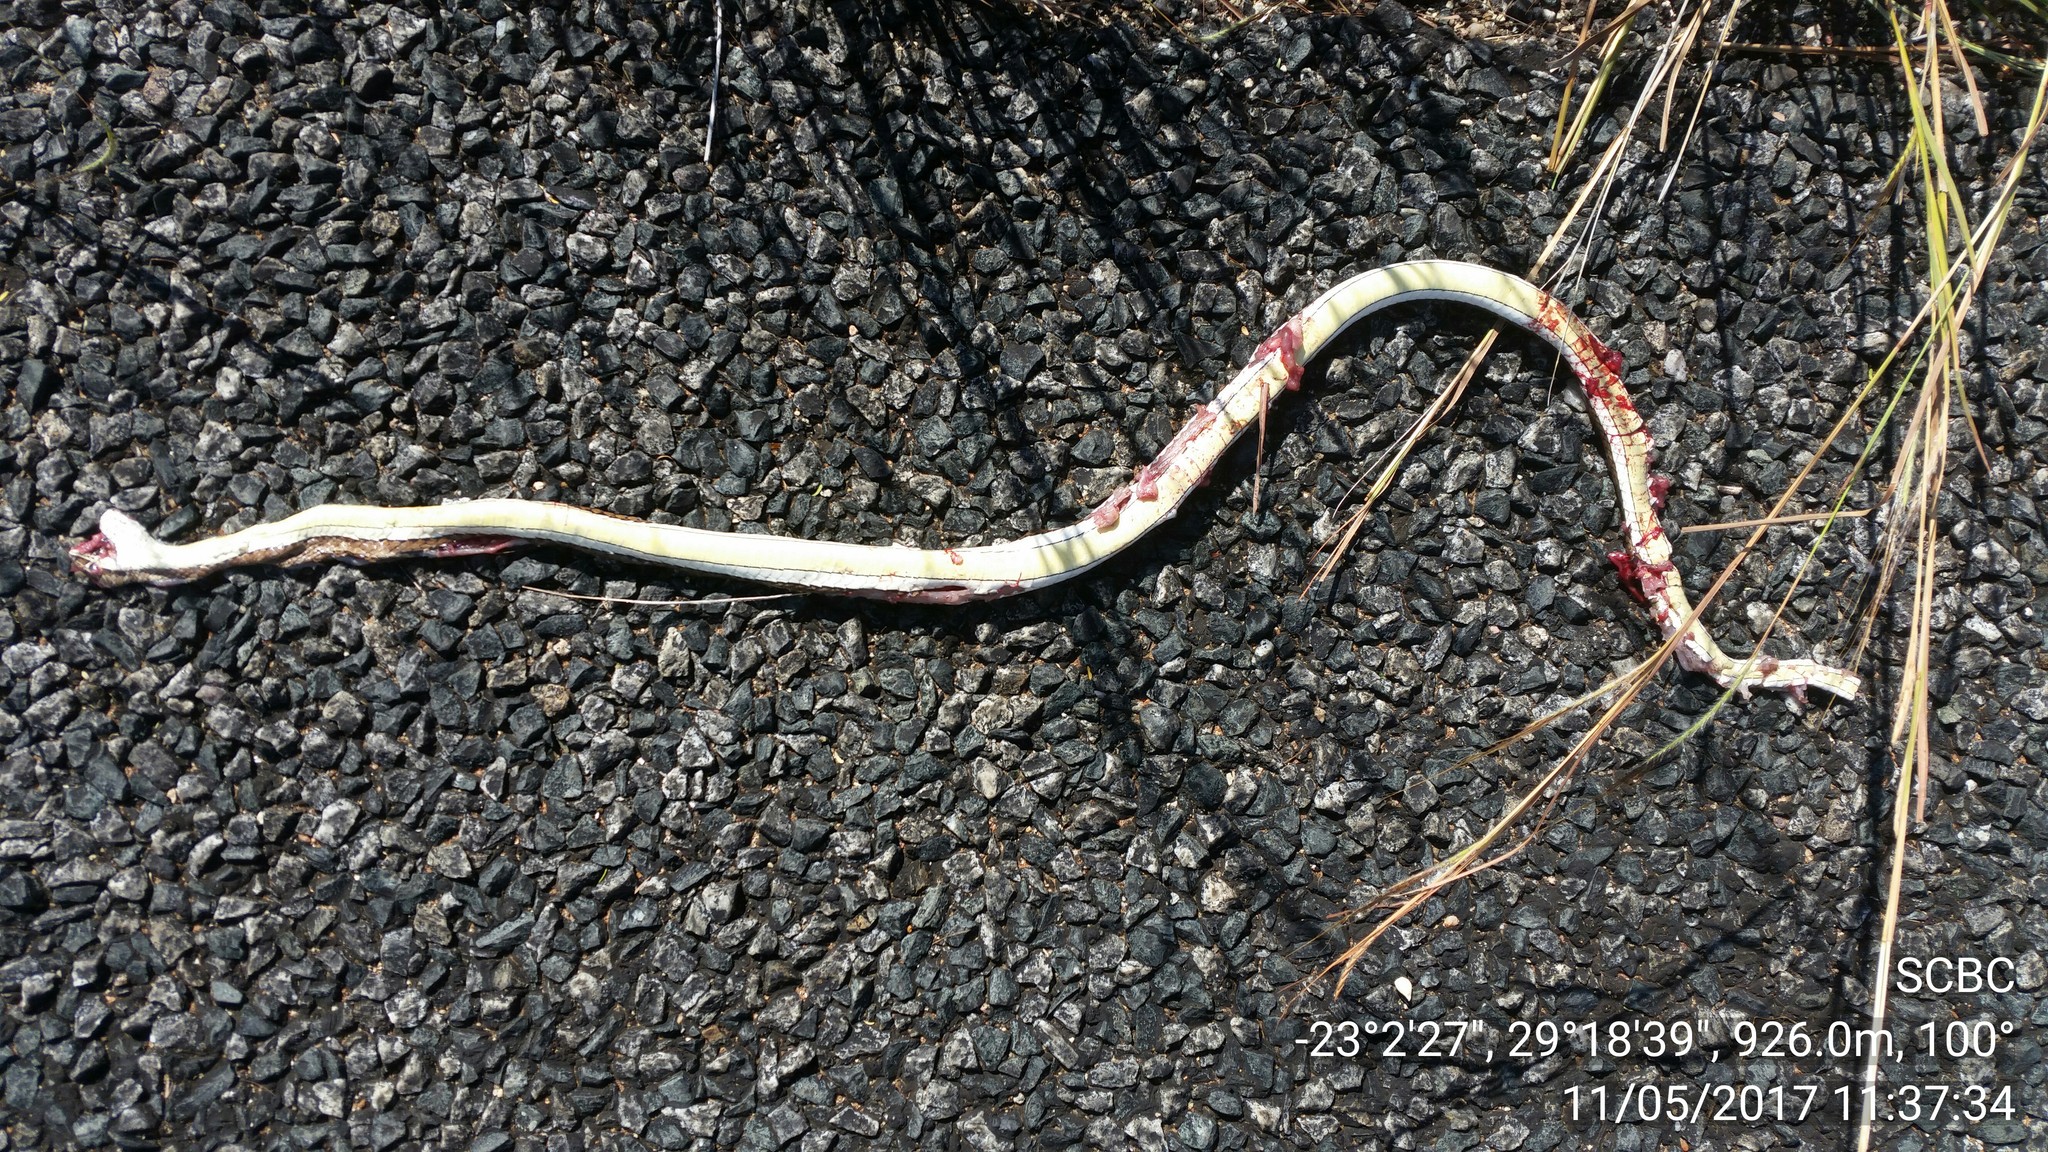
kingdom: Animalia
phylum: Chordata
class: Squamata
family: Psammophiidae
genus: Psammophis
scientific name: Psammophis subtaeniatus
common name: Stripe-bellied sand snake
